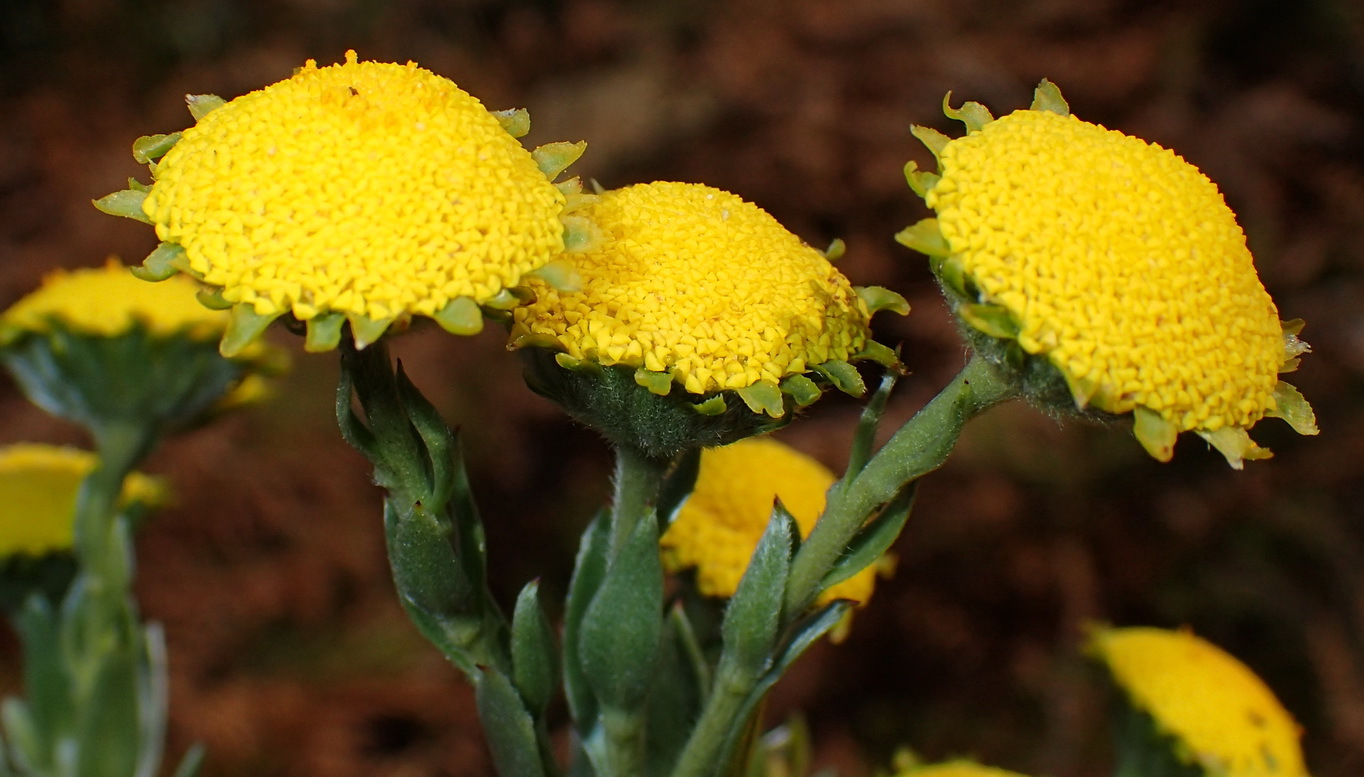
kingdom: Plantae
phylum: Tracheophyta
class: Magnoliopsida
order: Asterales
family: Asteraceae
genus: Schistostephium
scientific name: Schistostephium umbellatum
